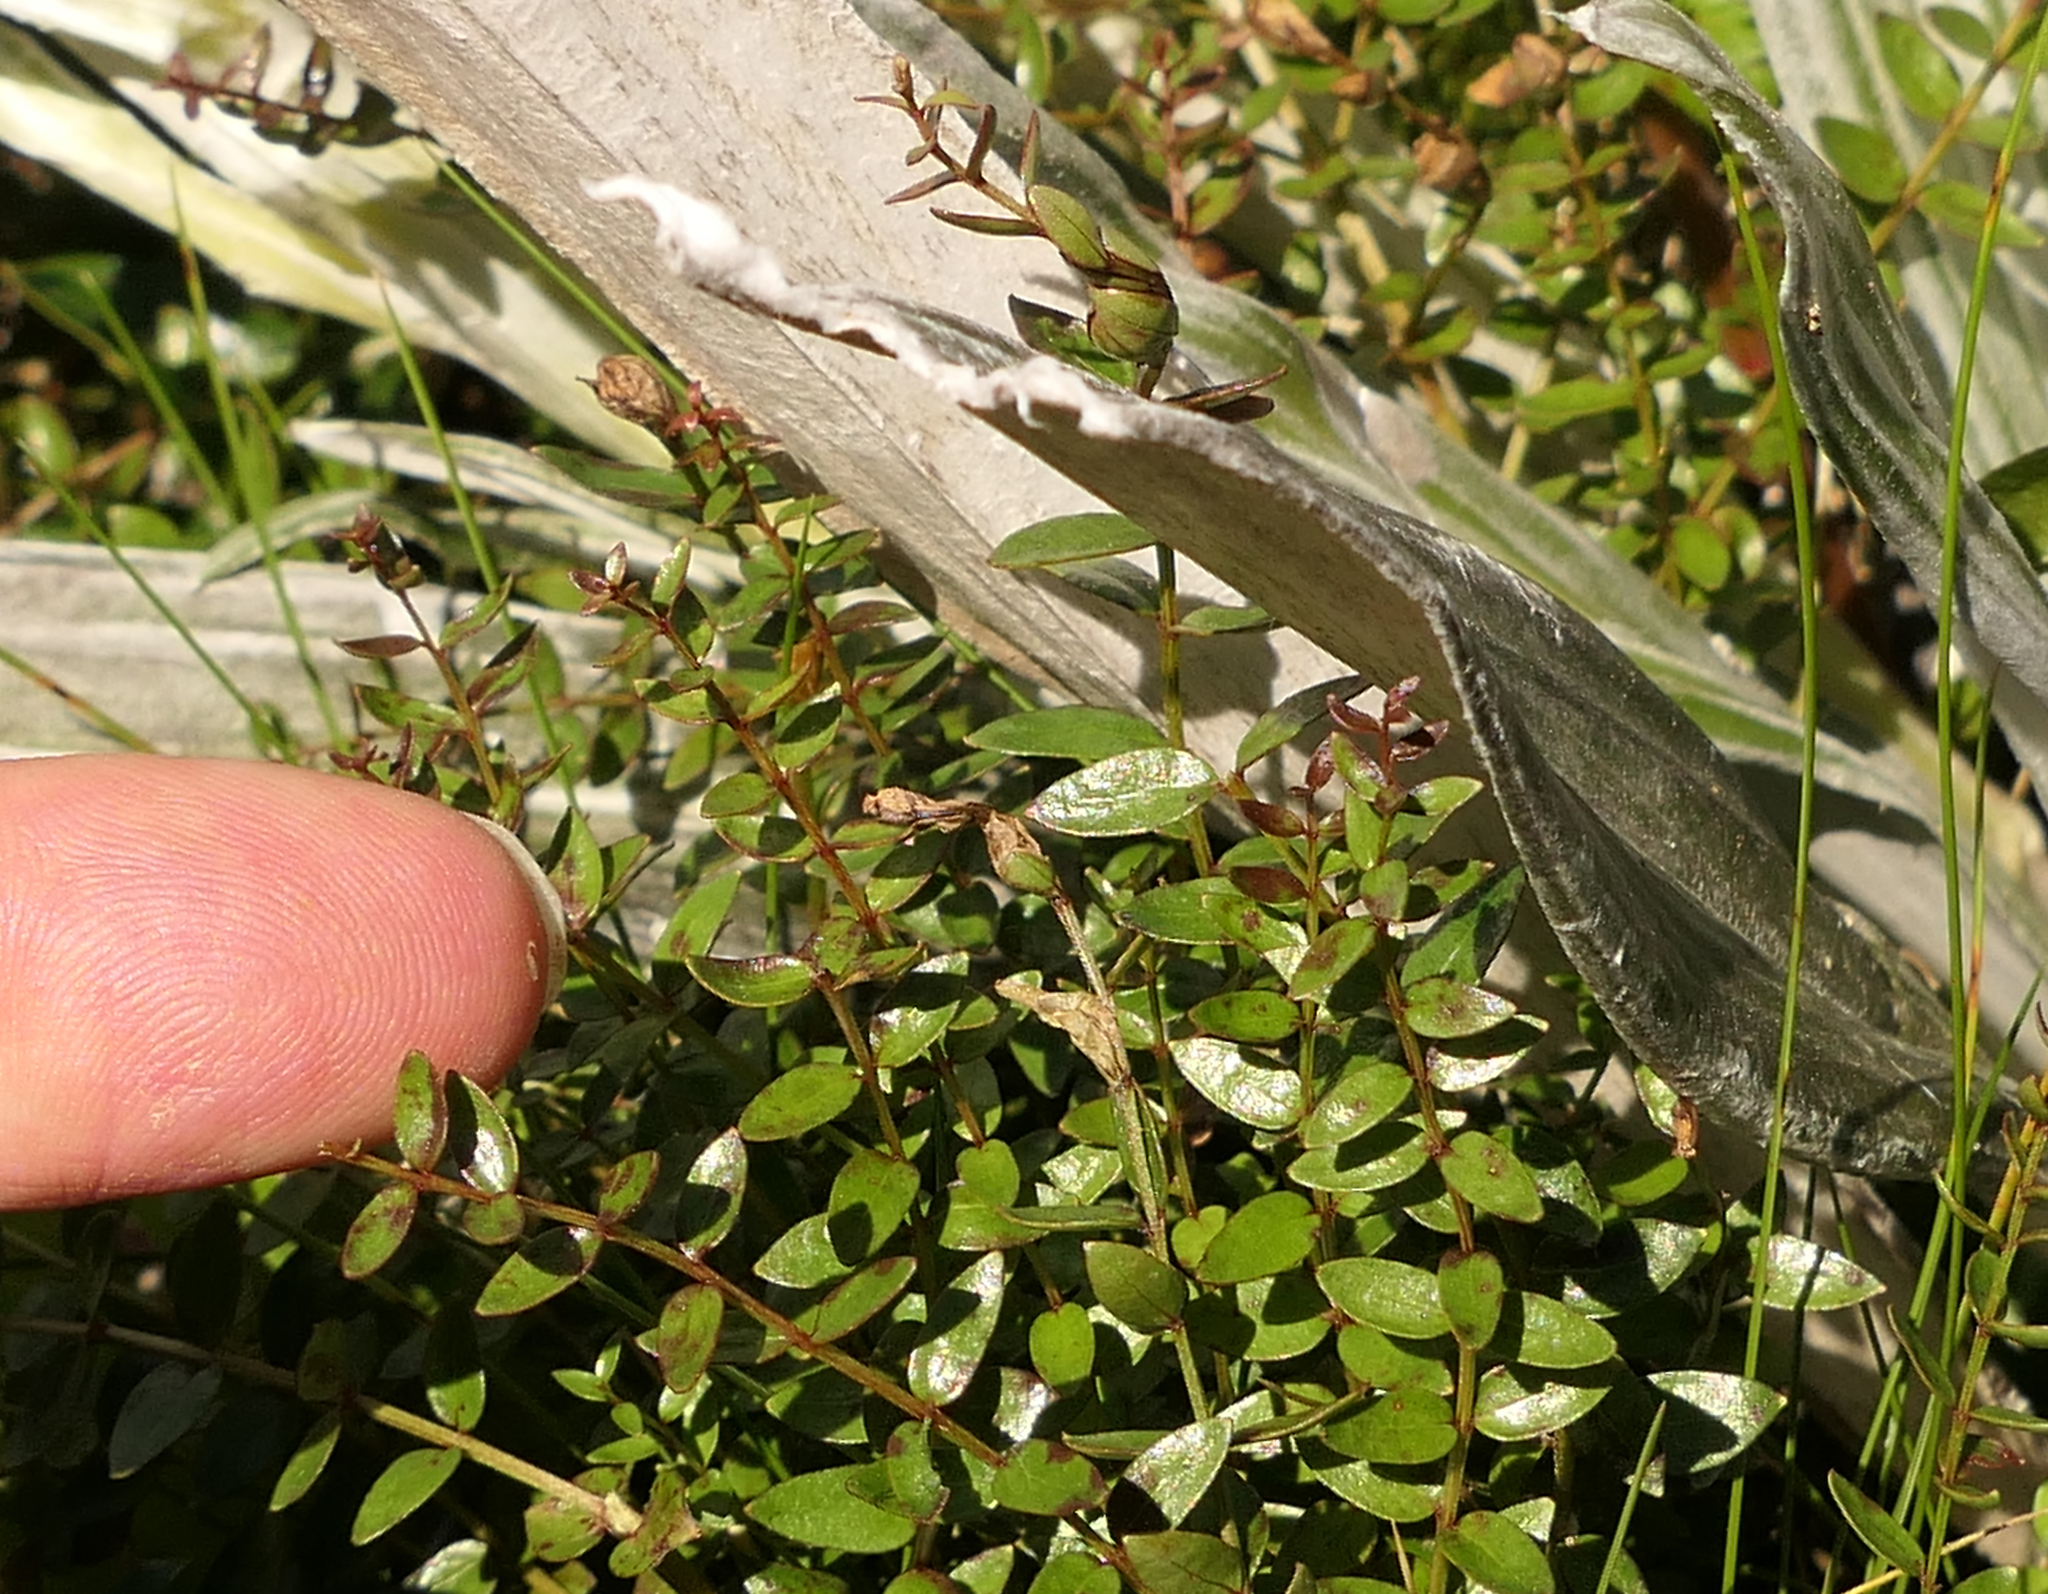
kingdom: Plantae
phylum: Tracheophyta
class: Magnoliopsida
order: Cucurbitales
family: Coriariaceae
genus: Coriaria
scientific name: Coriaria plumosa
